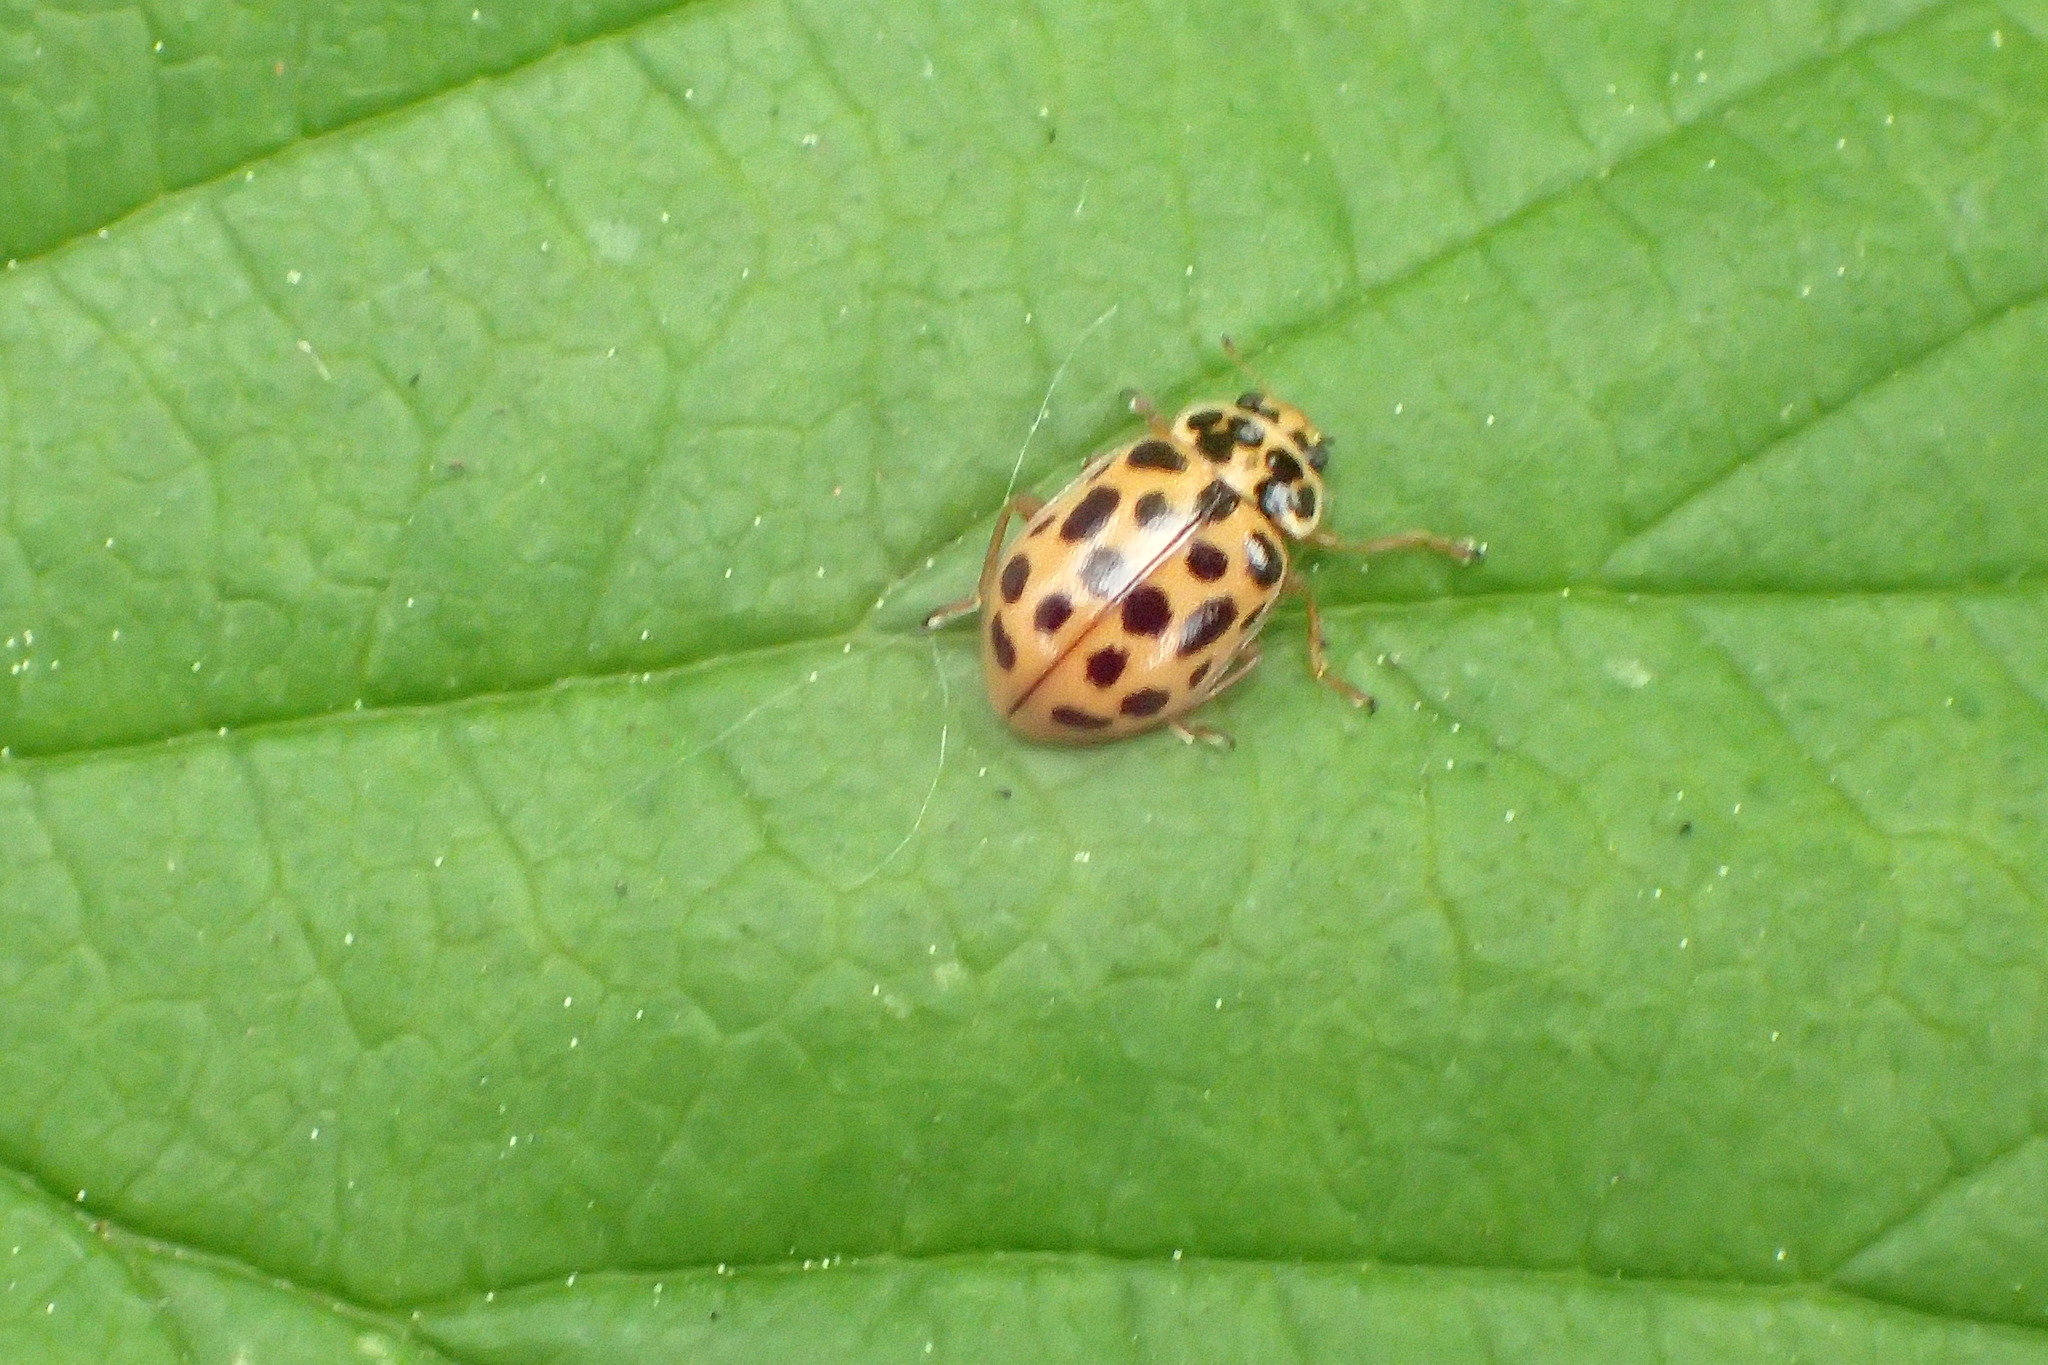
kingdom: Animalia
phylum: Arthropoda
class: Insecta
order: Coleoptera
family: Coccinellidae
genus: Anisosticta
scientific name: Anisosticta novemdecimpunctata
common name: Water ladybird
